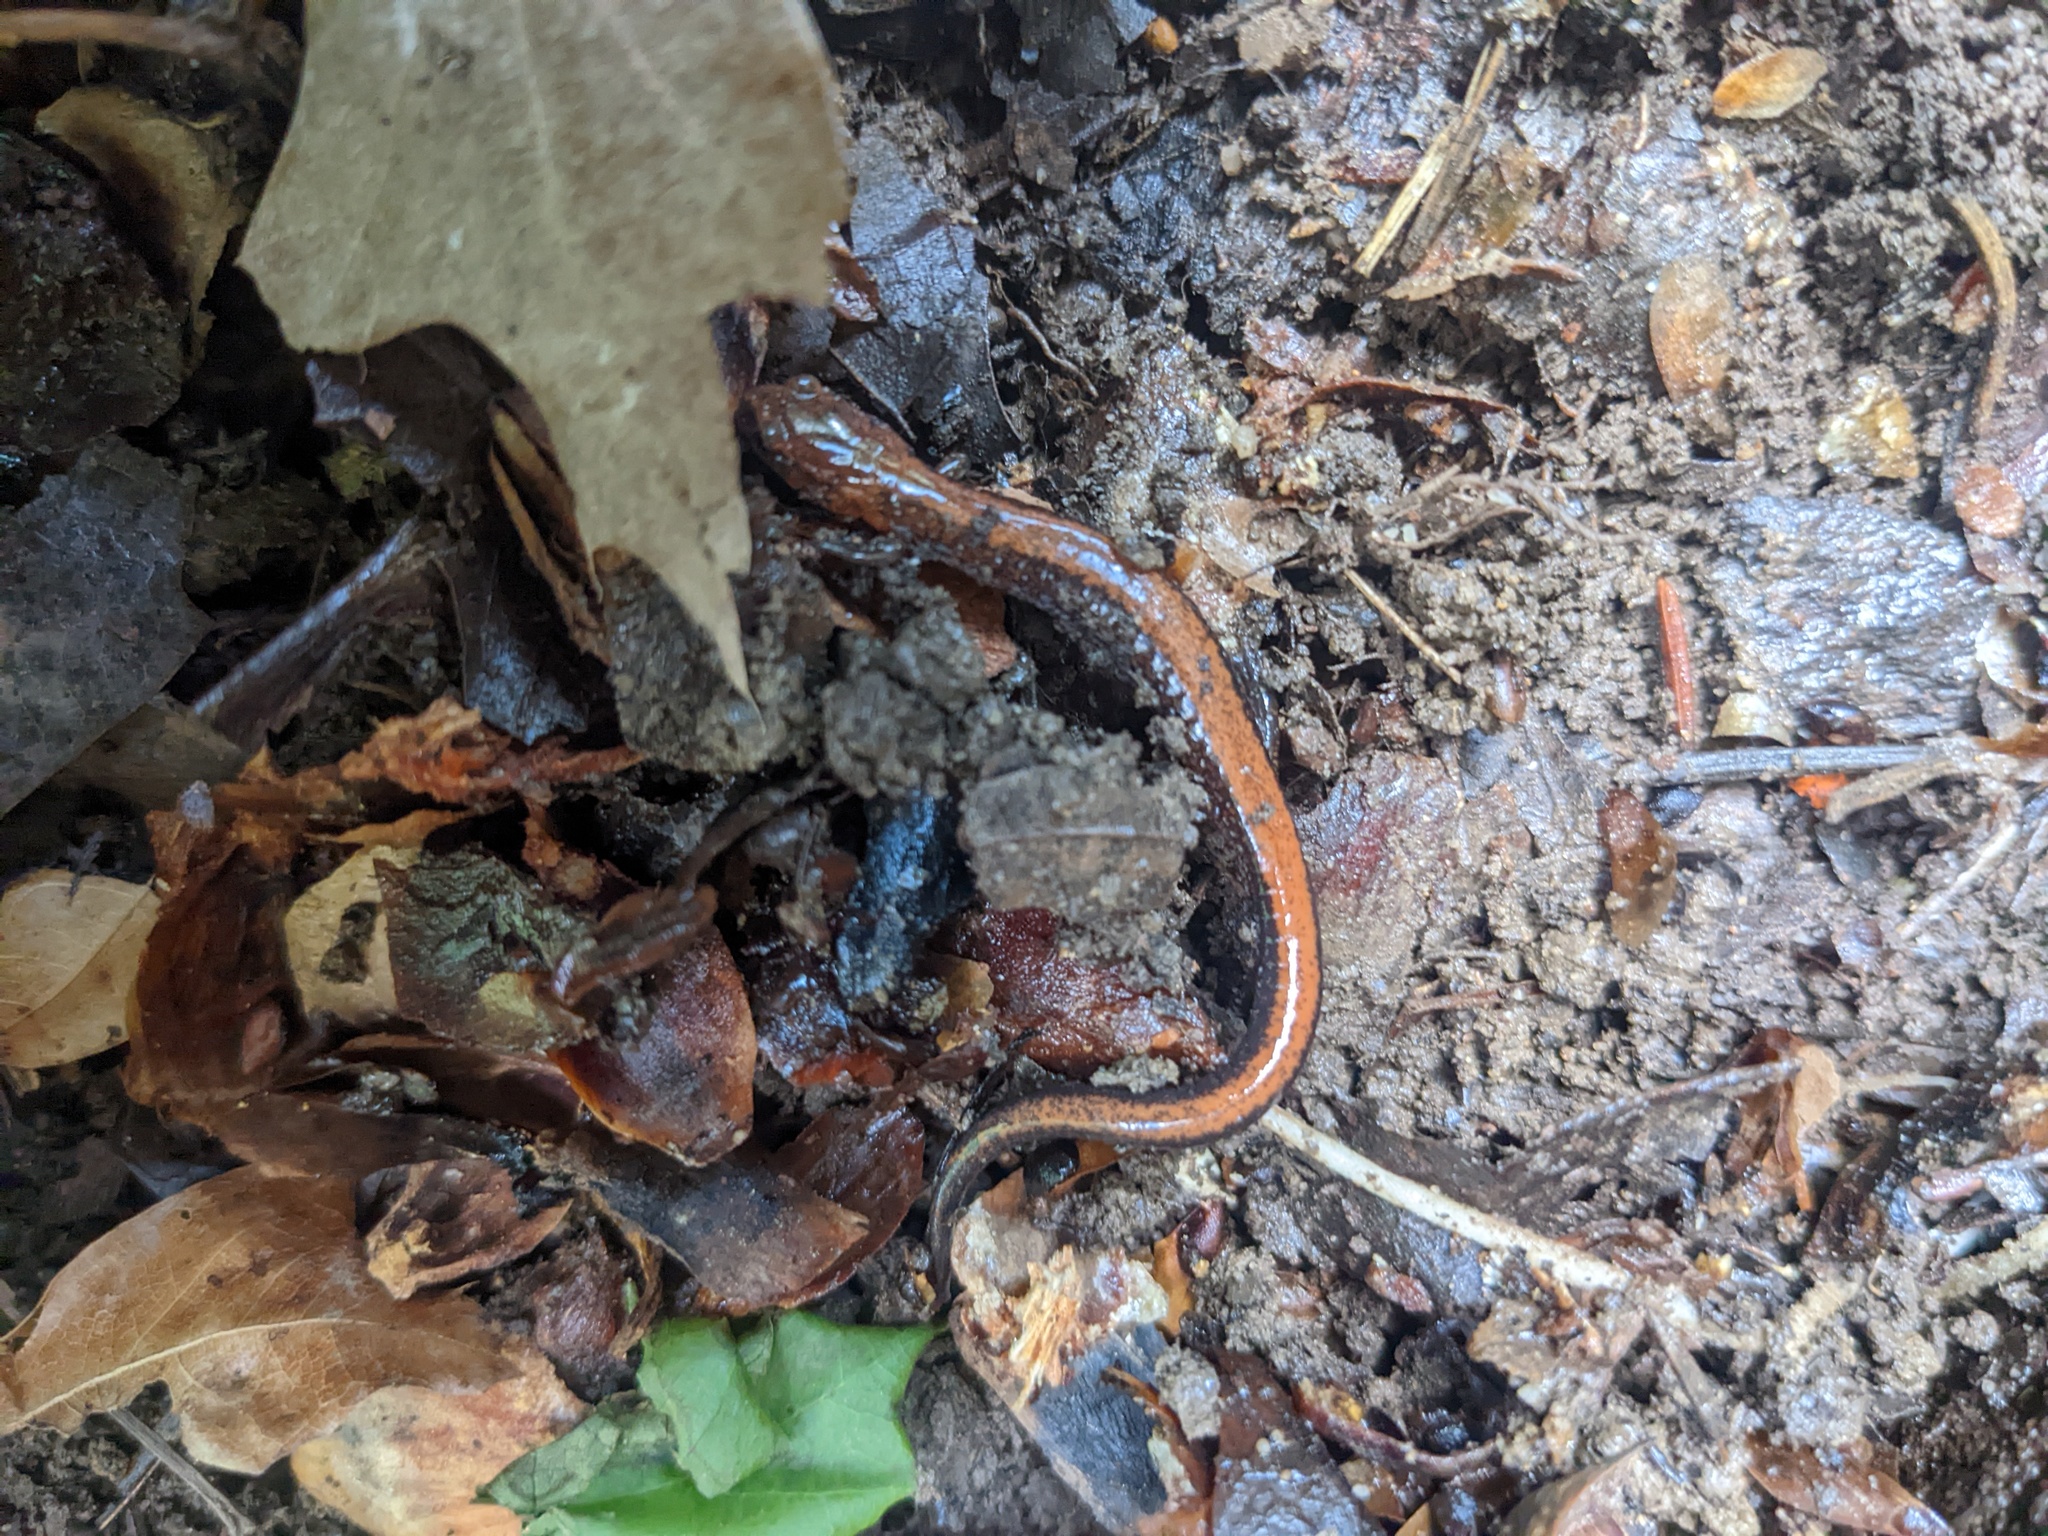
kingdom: Animalia
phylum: Chordata
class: Amphibia
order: Caudata
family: Plethodontidae
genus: Plethodon
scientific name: Plethodon cinereus
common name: Redback salamander
